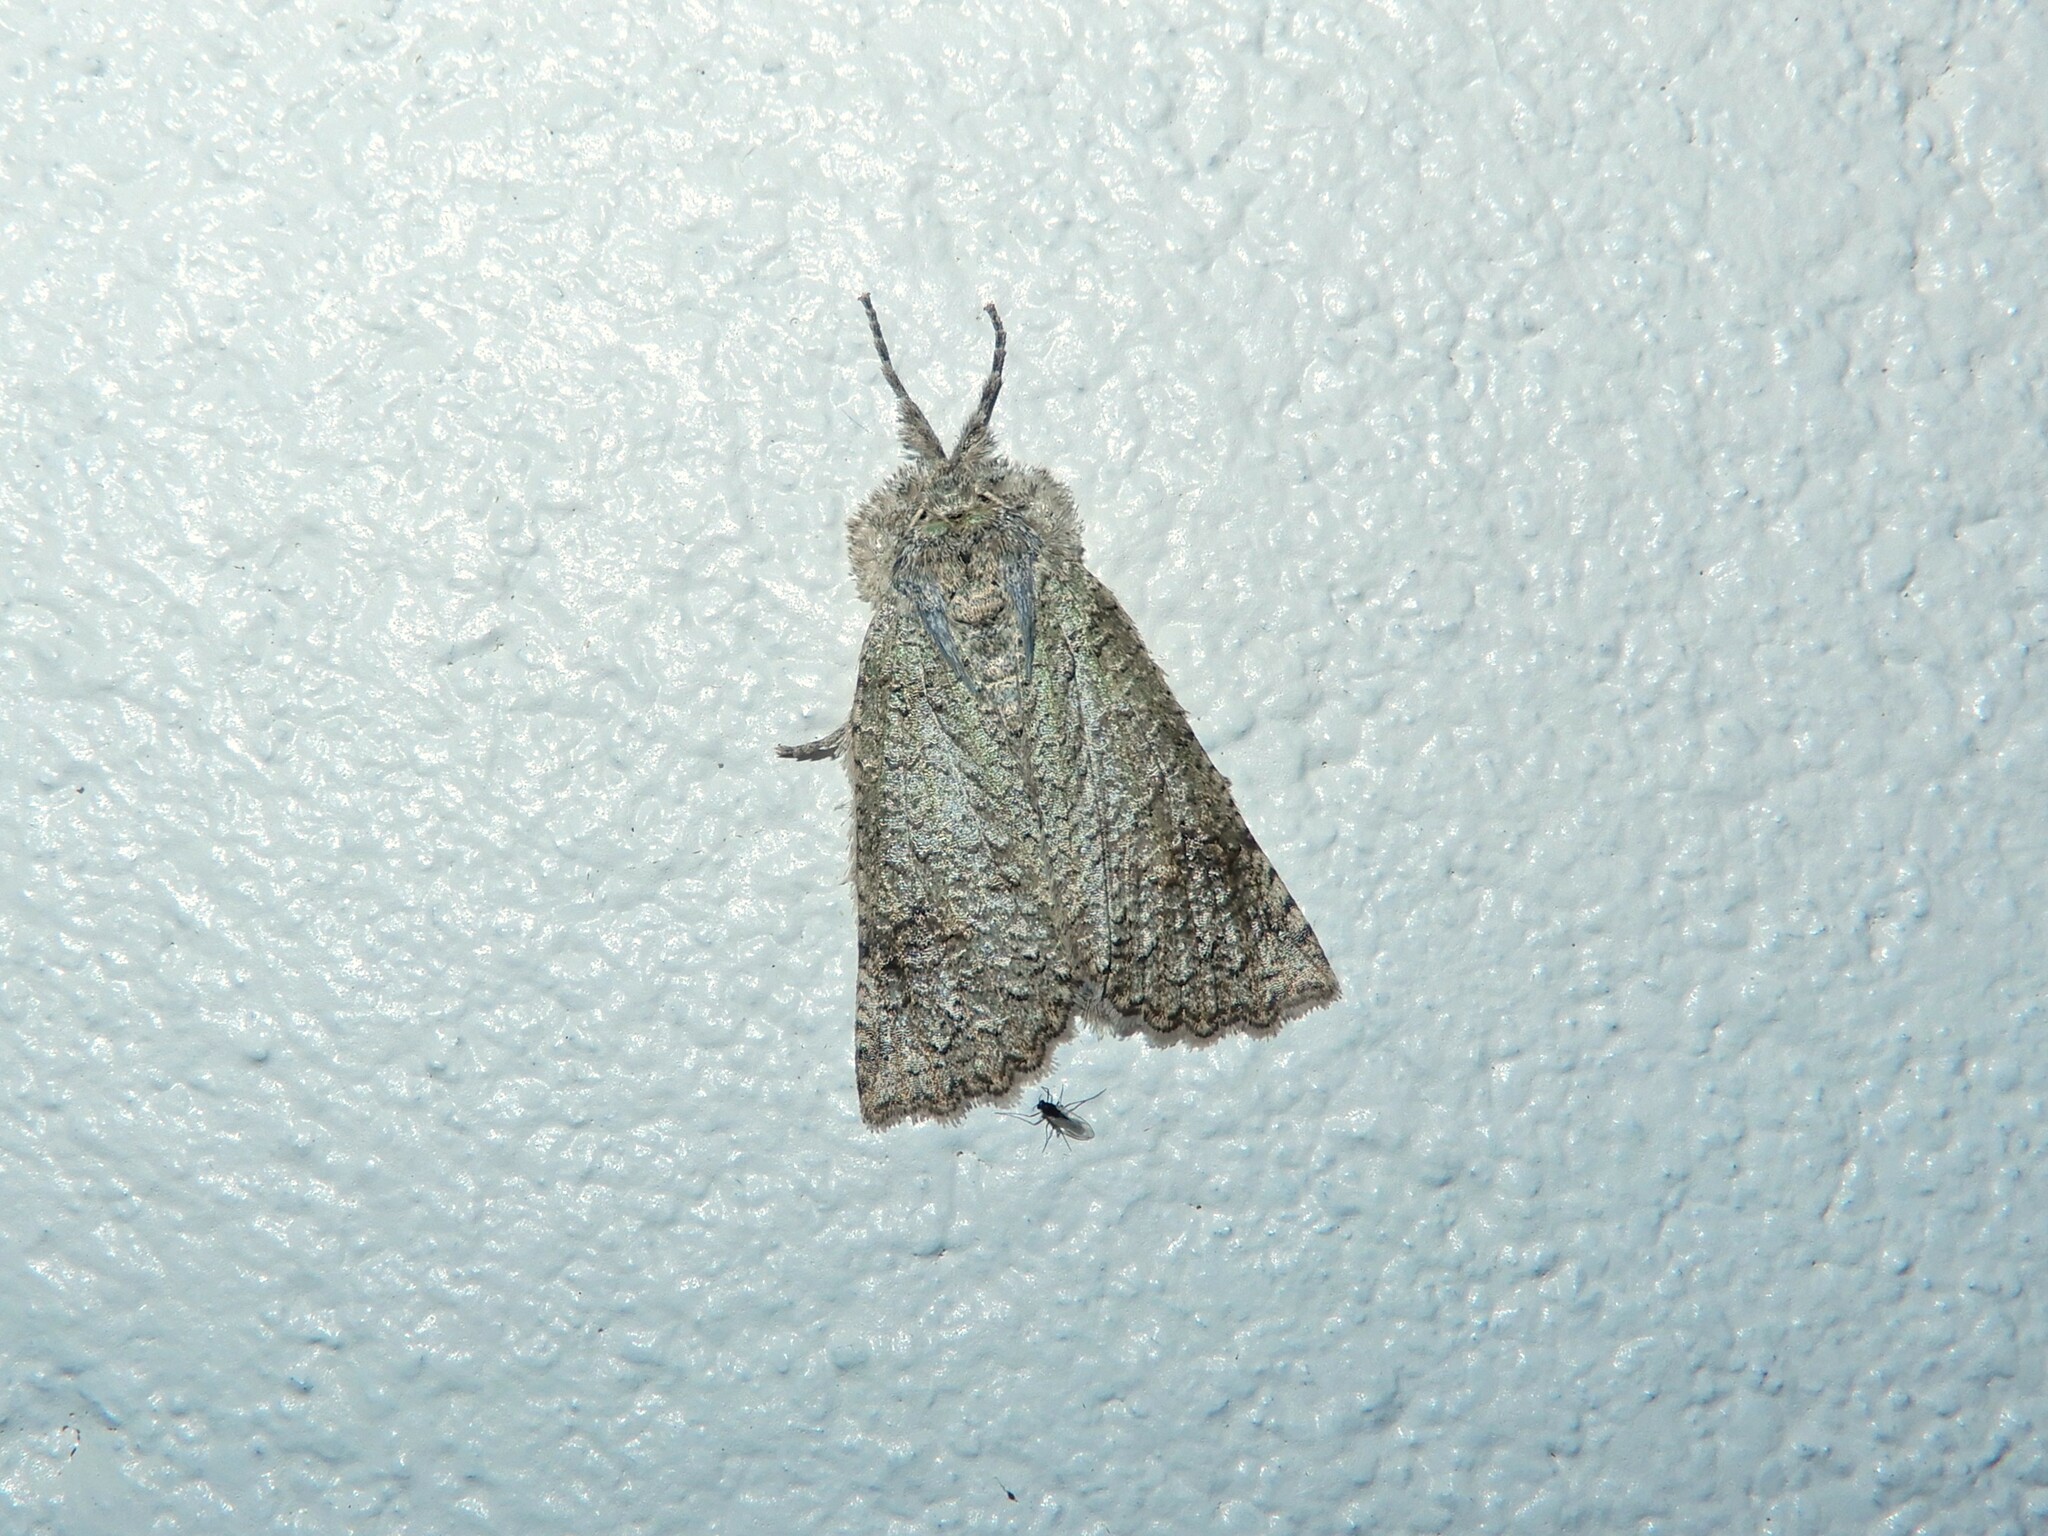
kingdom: Animalia
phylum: Arthropoda
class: Insecta
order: Lepidoptera
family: Geometridae
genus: Declana
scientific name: Declana floccosa
